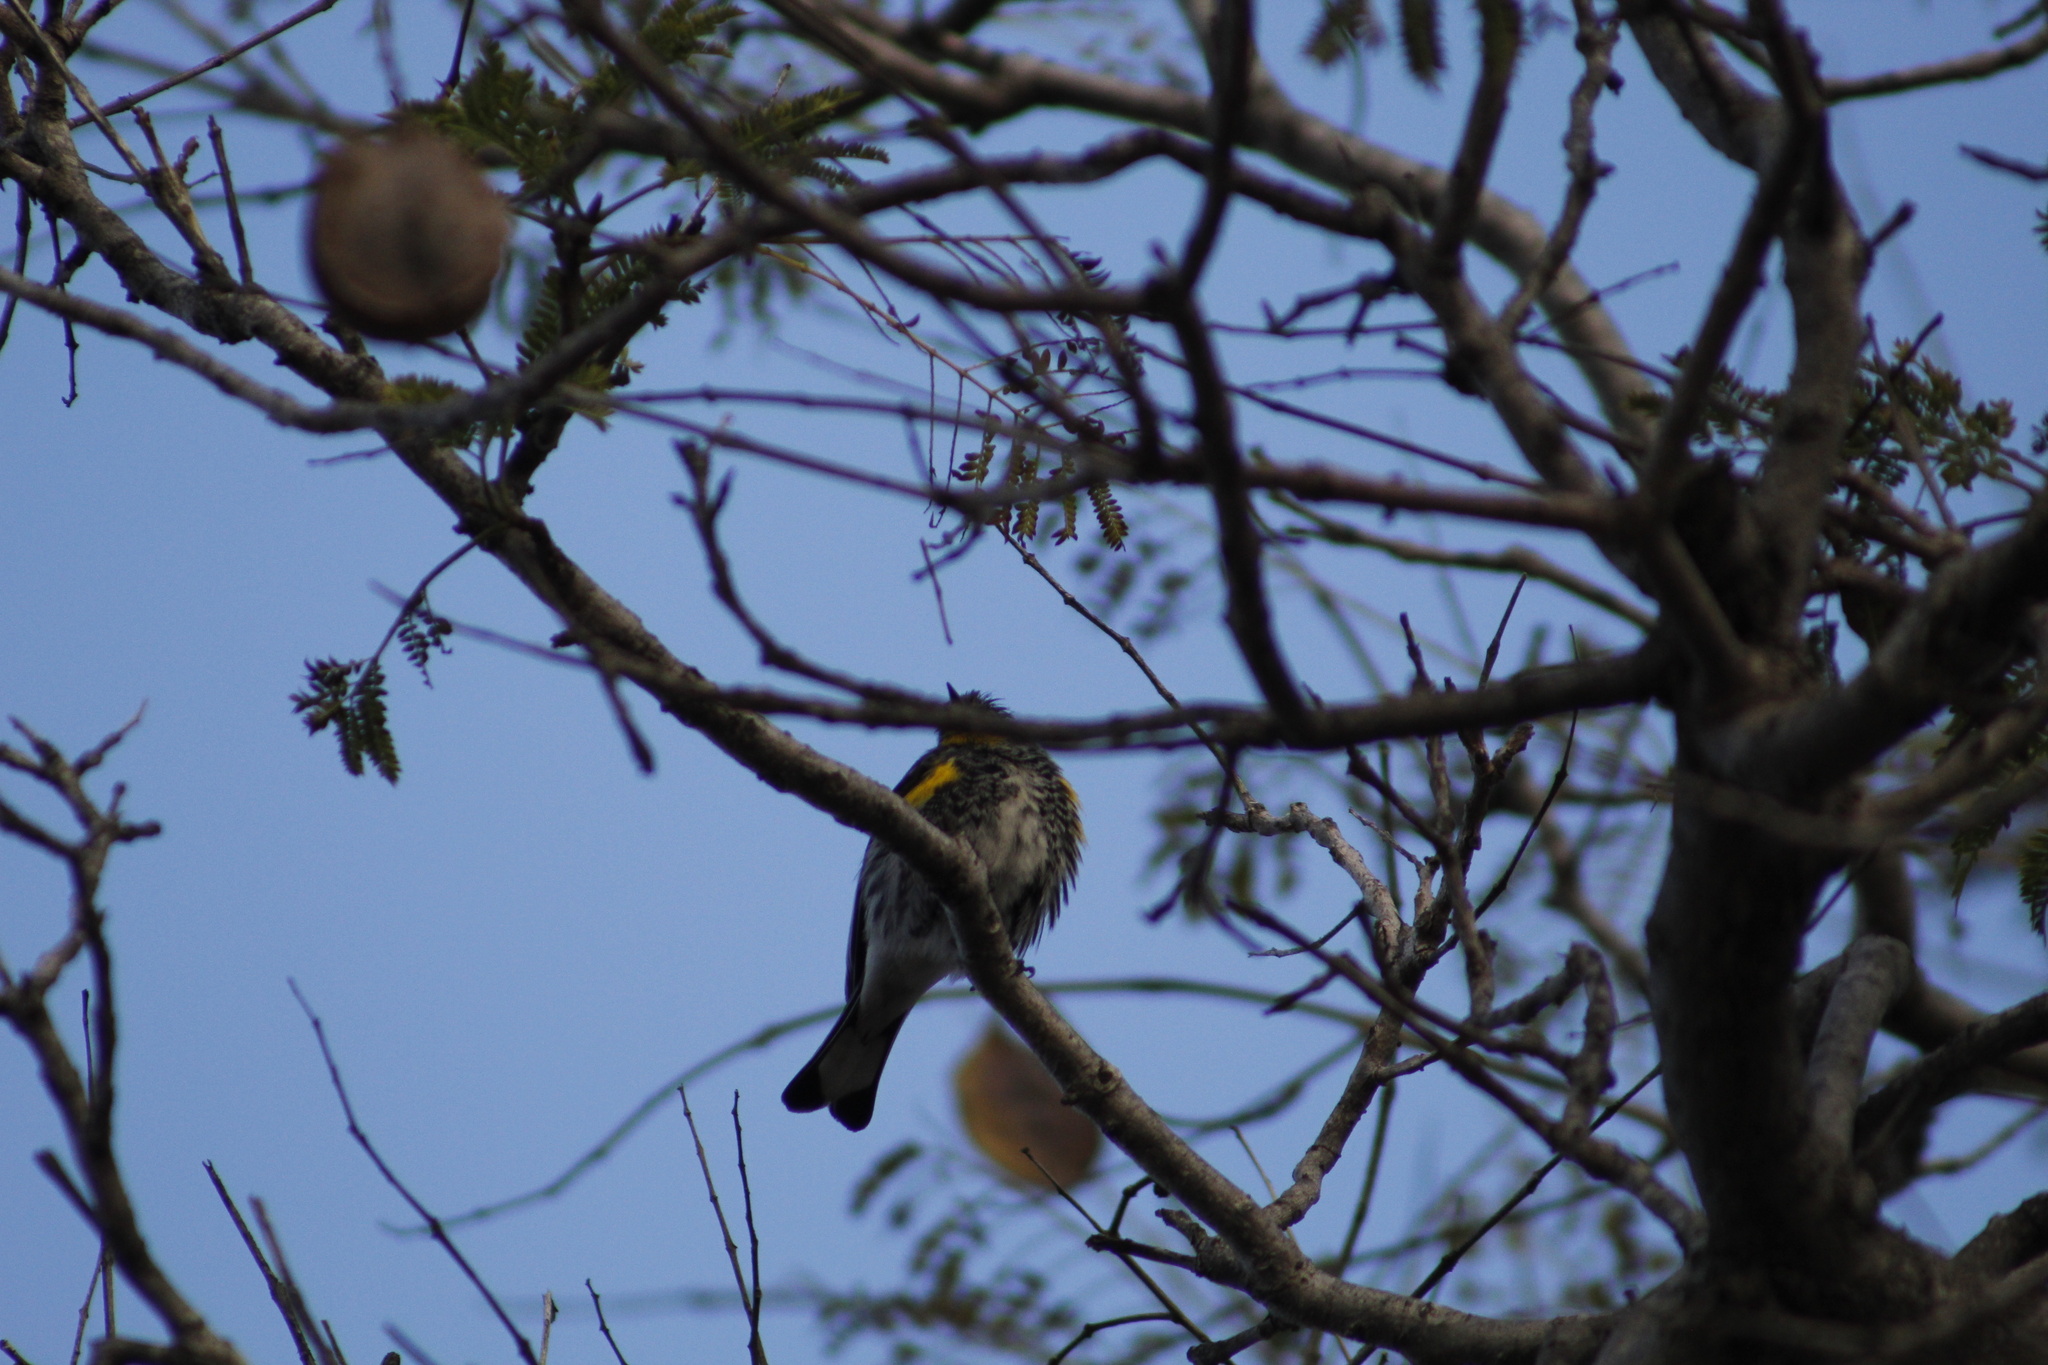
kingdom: Animalia
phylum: Chordata
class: Aves
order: Passeriformes
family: Parulidae
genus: Setophaga
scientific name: Setophaga coronata
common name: Myrtle warbler
